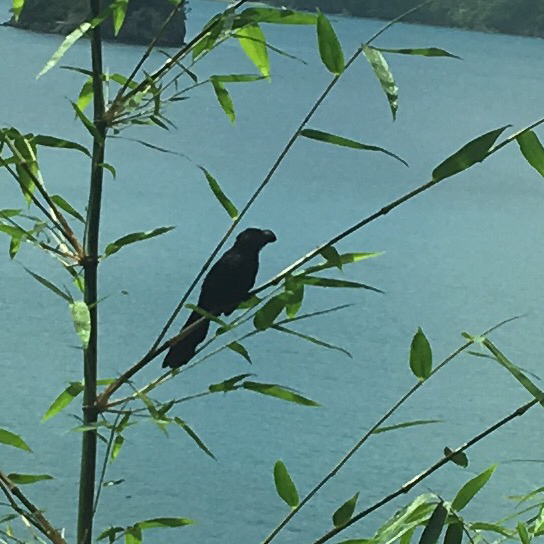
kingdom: Animalia
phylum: Chordata
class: Aves
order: Cuculiformes
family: Cuculidae
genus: Crotophaga
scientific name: Crotophaga ani
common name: Smooth-billed ani
